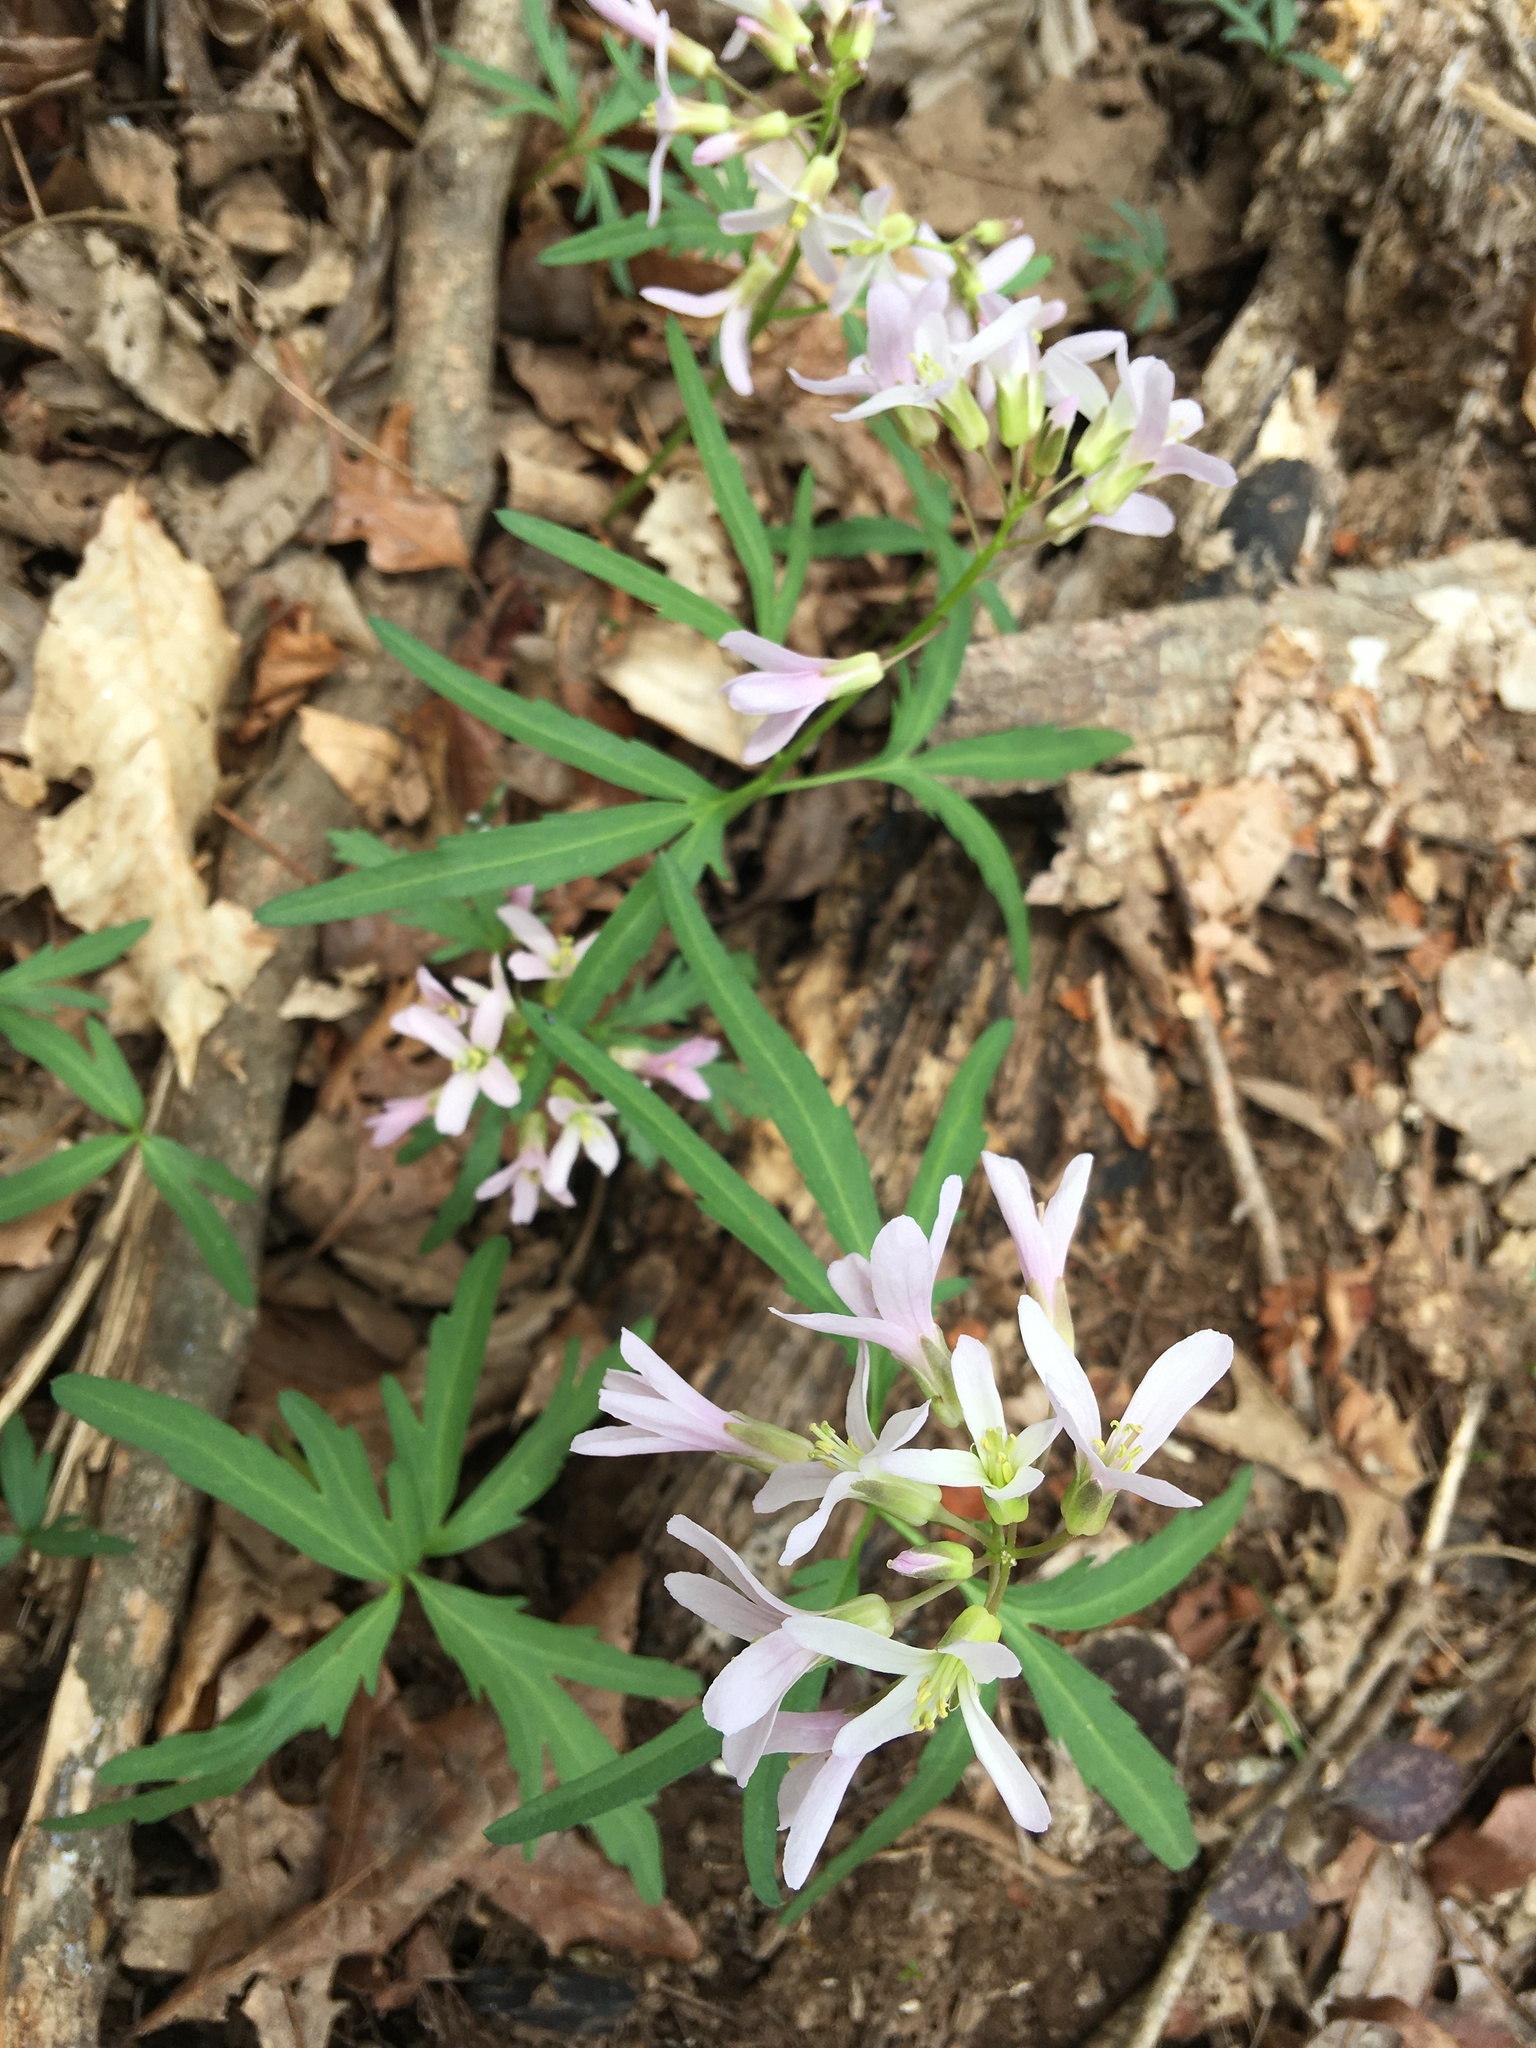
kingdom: Plantae
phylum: Tracheophyta
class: Magnoliopsida
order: Brassicales
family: Brassicaceae
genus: Cardamine
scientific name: Cardamine concatenata
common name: Cut-leaf toothcup
